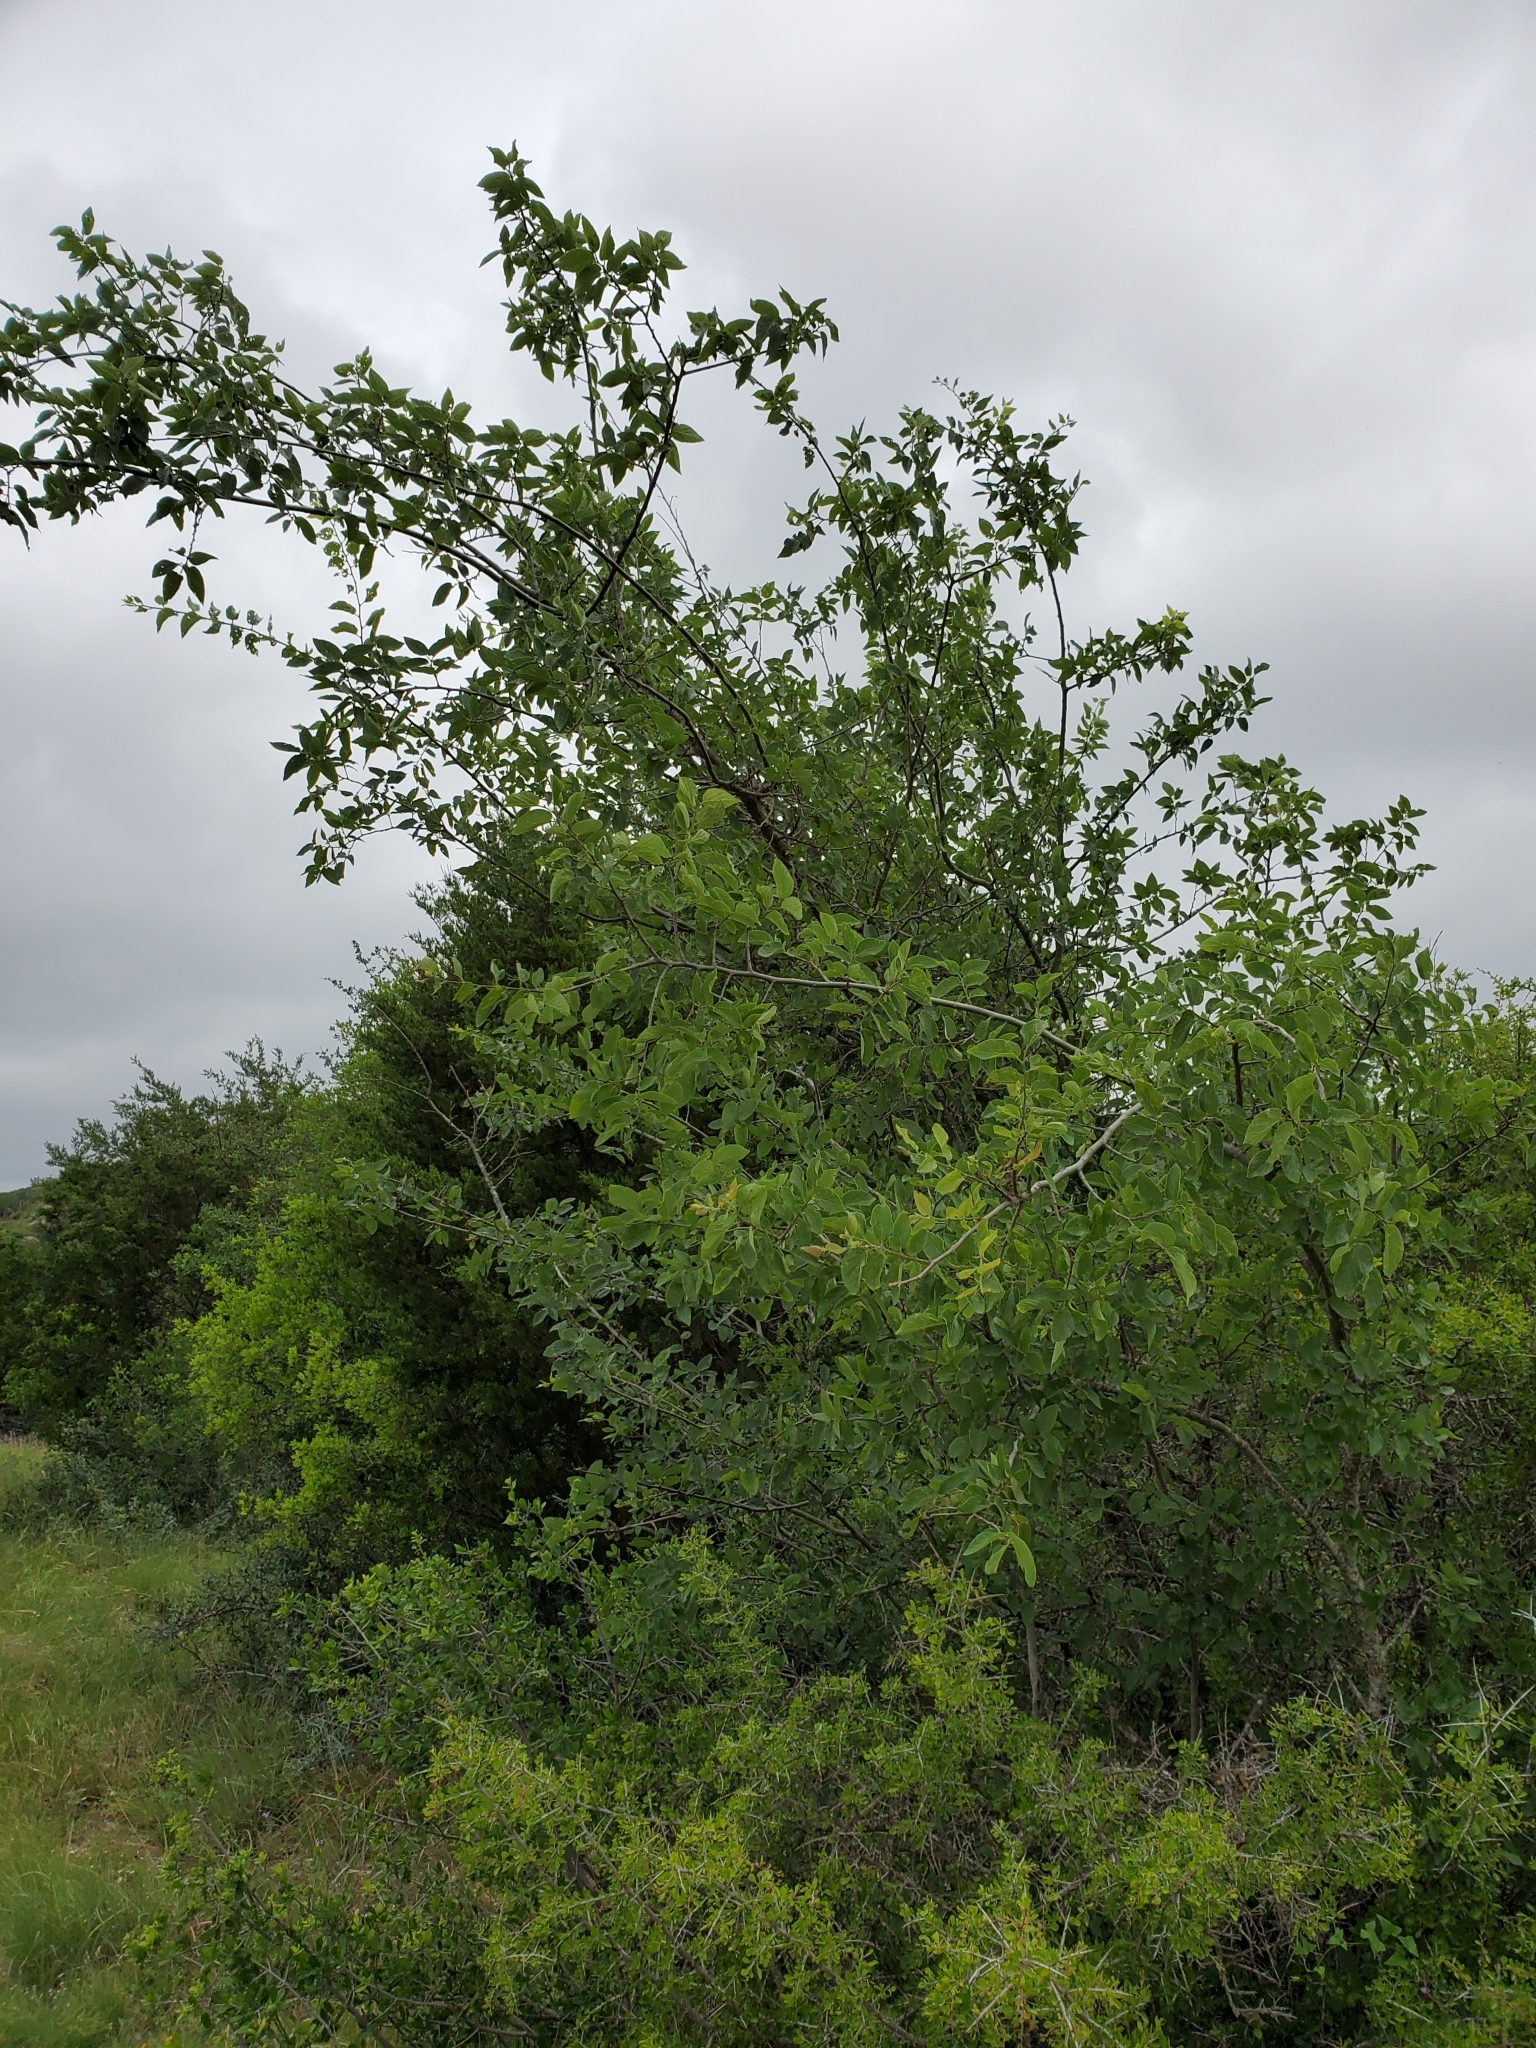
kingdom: Plantae
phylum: Tracheophyta
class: Magnoliopsida
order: Rosales
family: Cannabaceae
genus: Celtis
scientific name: Celtis reticulata
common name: Netleaf hackberry
